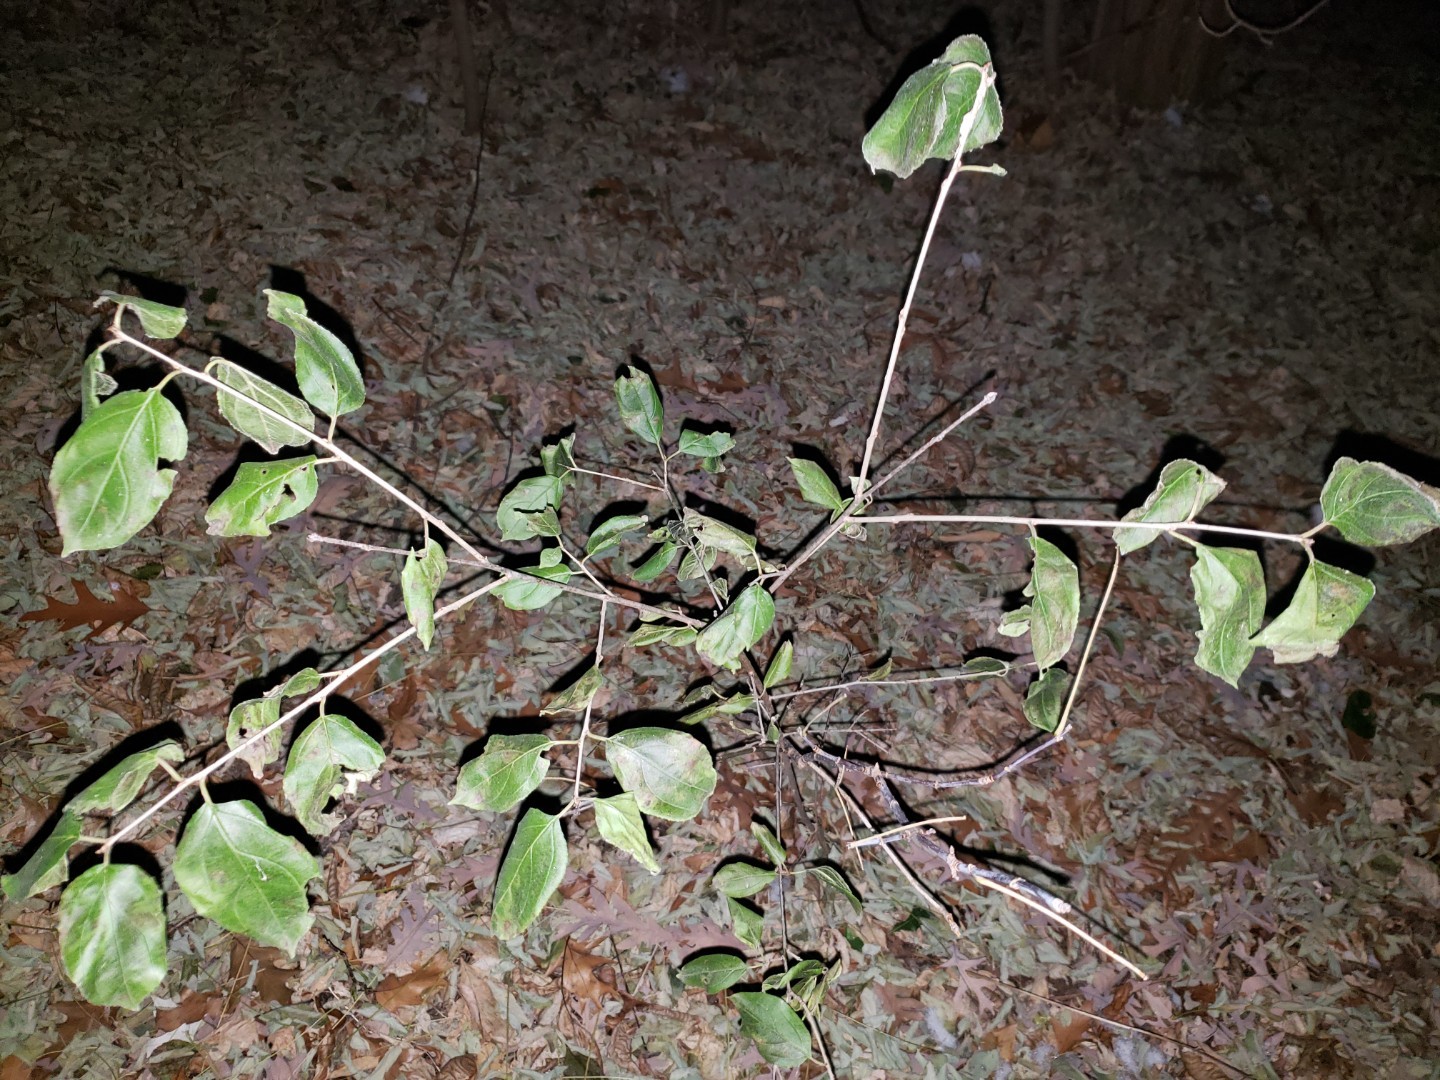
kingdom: Plantae
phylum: Tracheophyta
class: Magnoliopsida
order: Rosales
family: Rhamnaceae
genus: Rhamnus
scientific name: Rhamnus cathartica
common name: Common buckthorn
